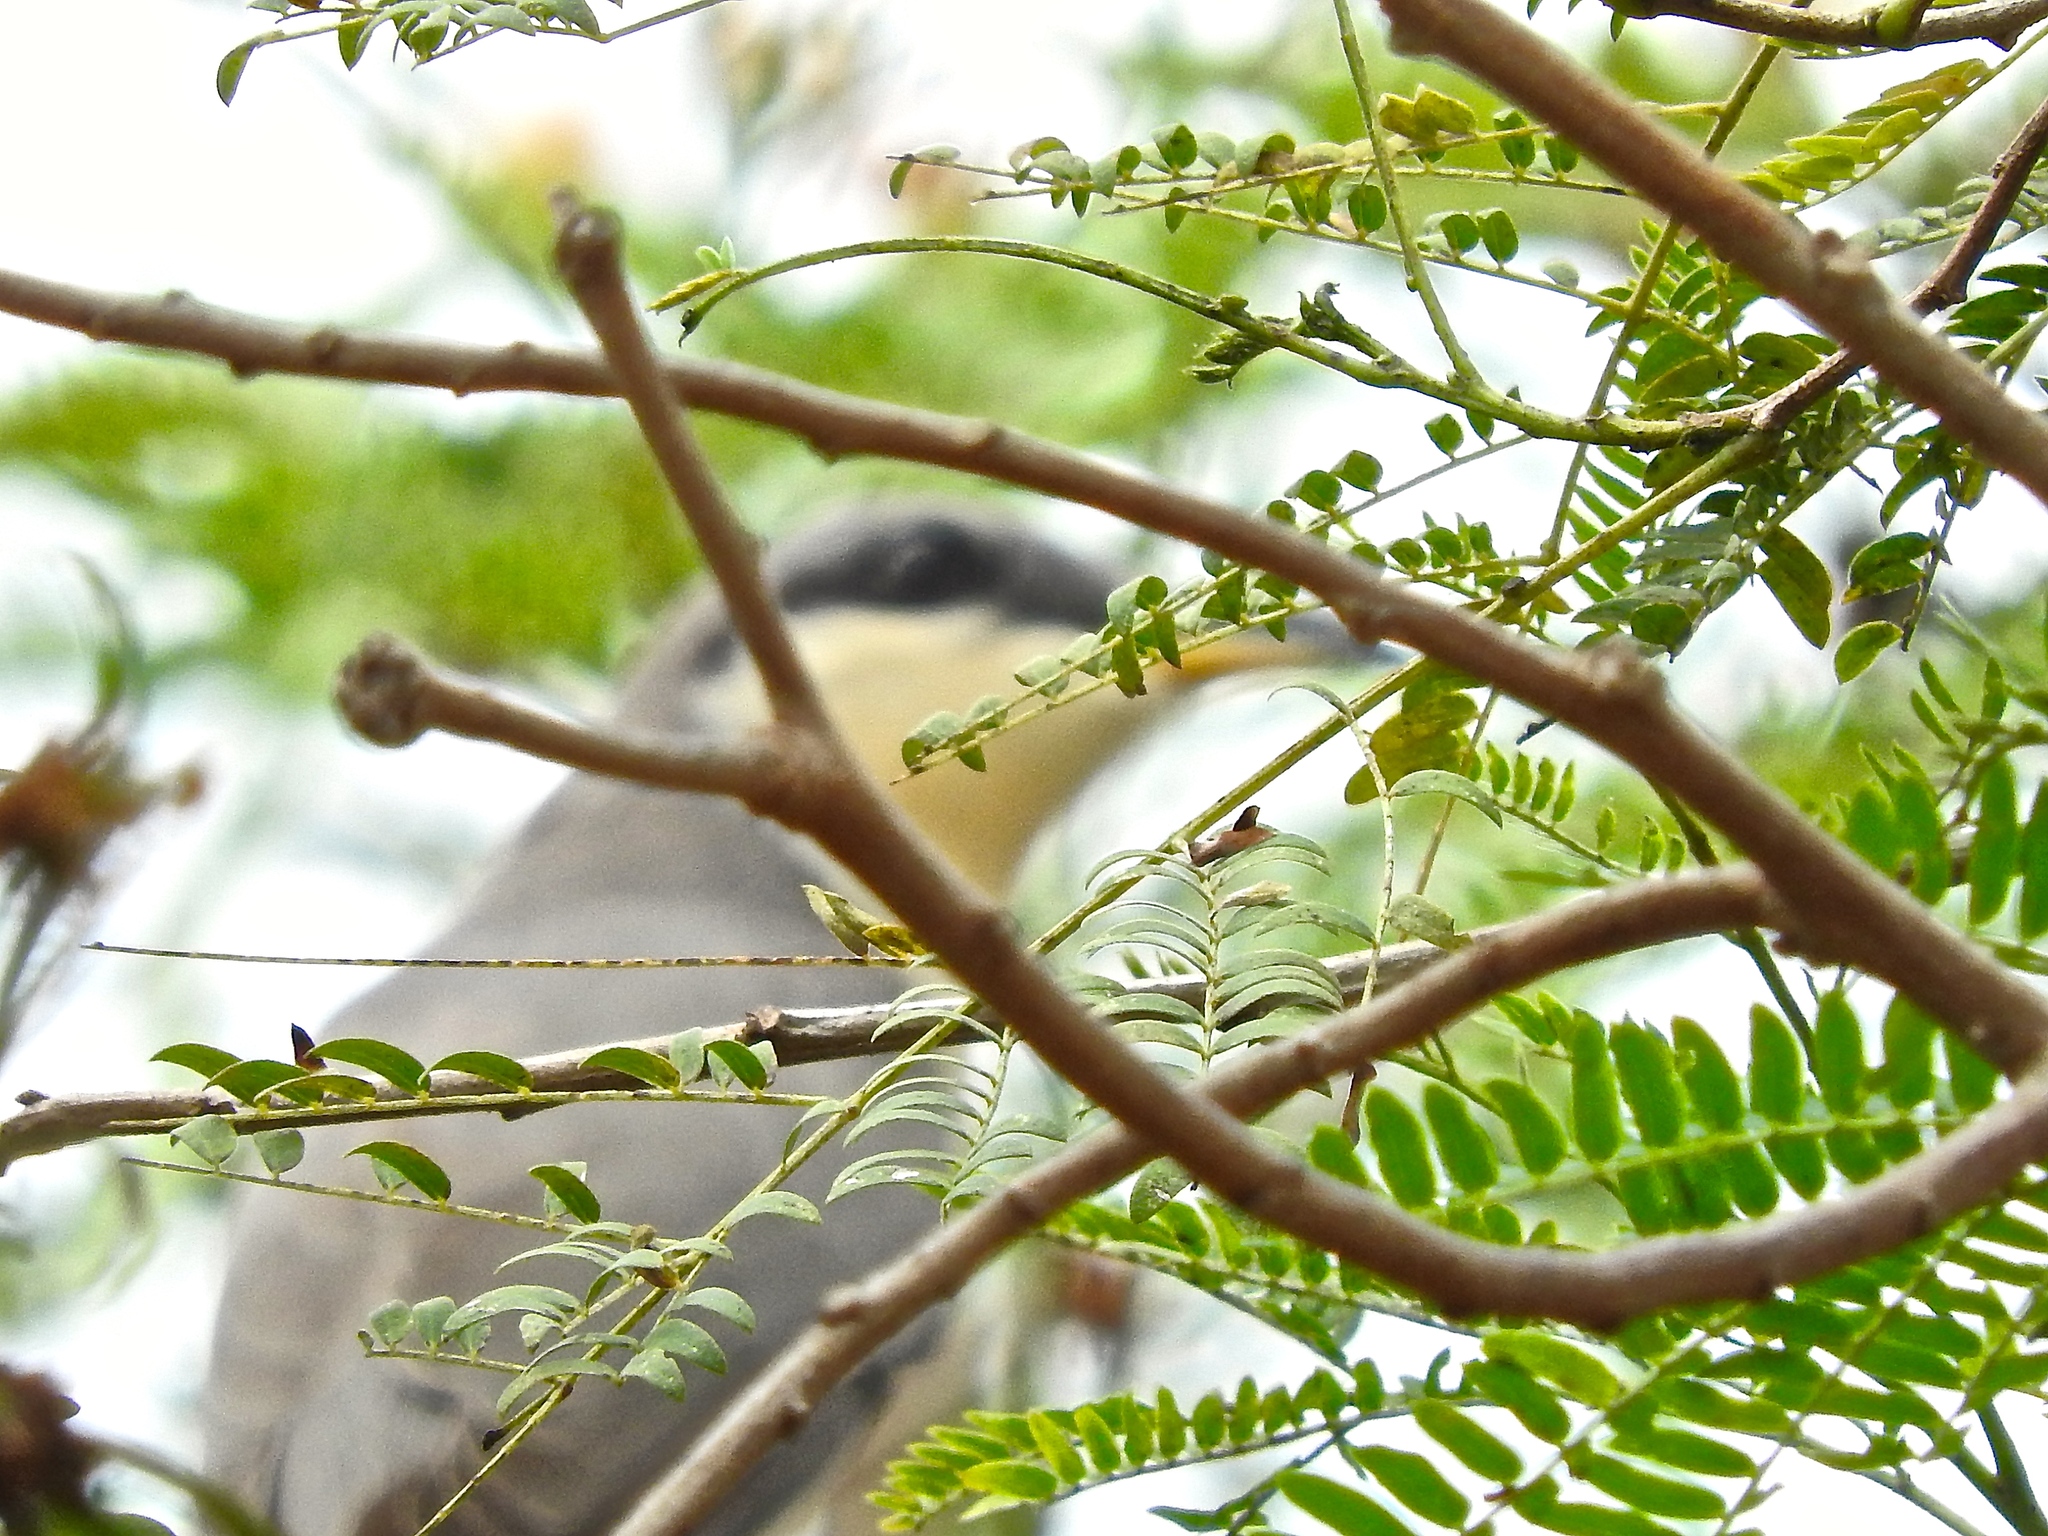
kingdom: Animalia
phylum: Chordata
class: Aves
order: Cuculiformes
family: Cuculidae
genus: Coccyzus
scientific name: Coccyzus minor
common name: Mangrove cuckoo
